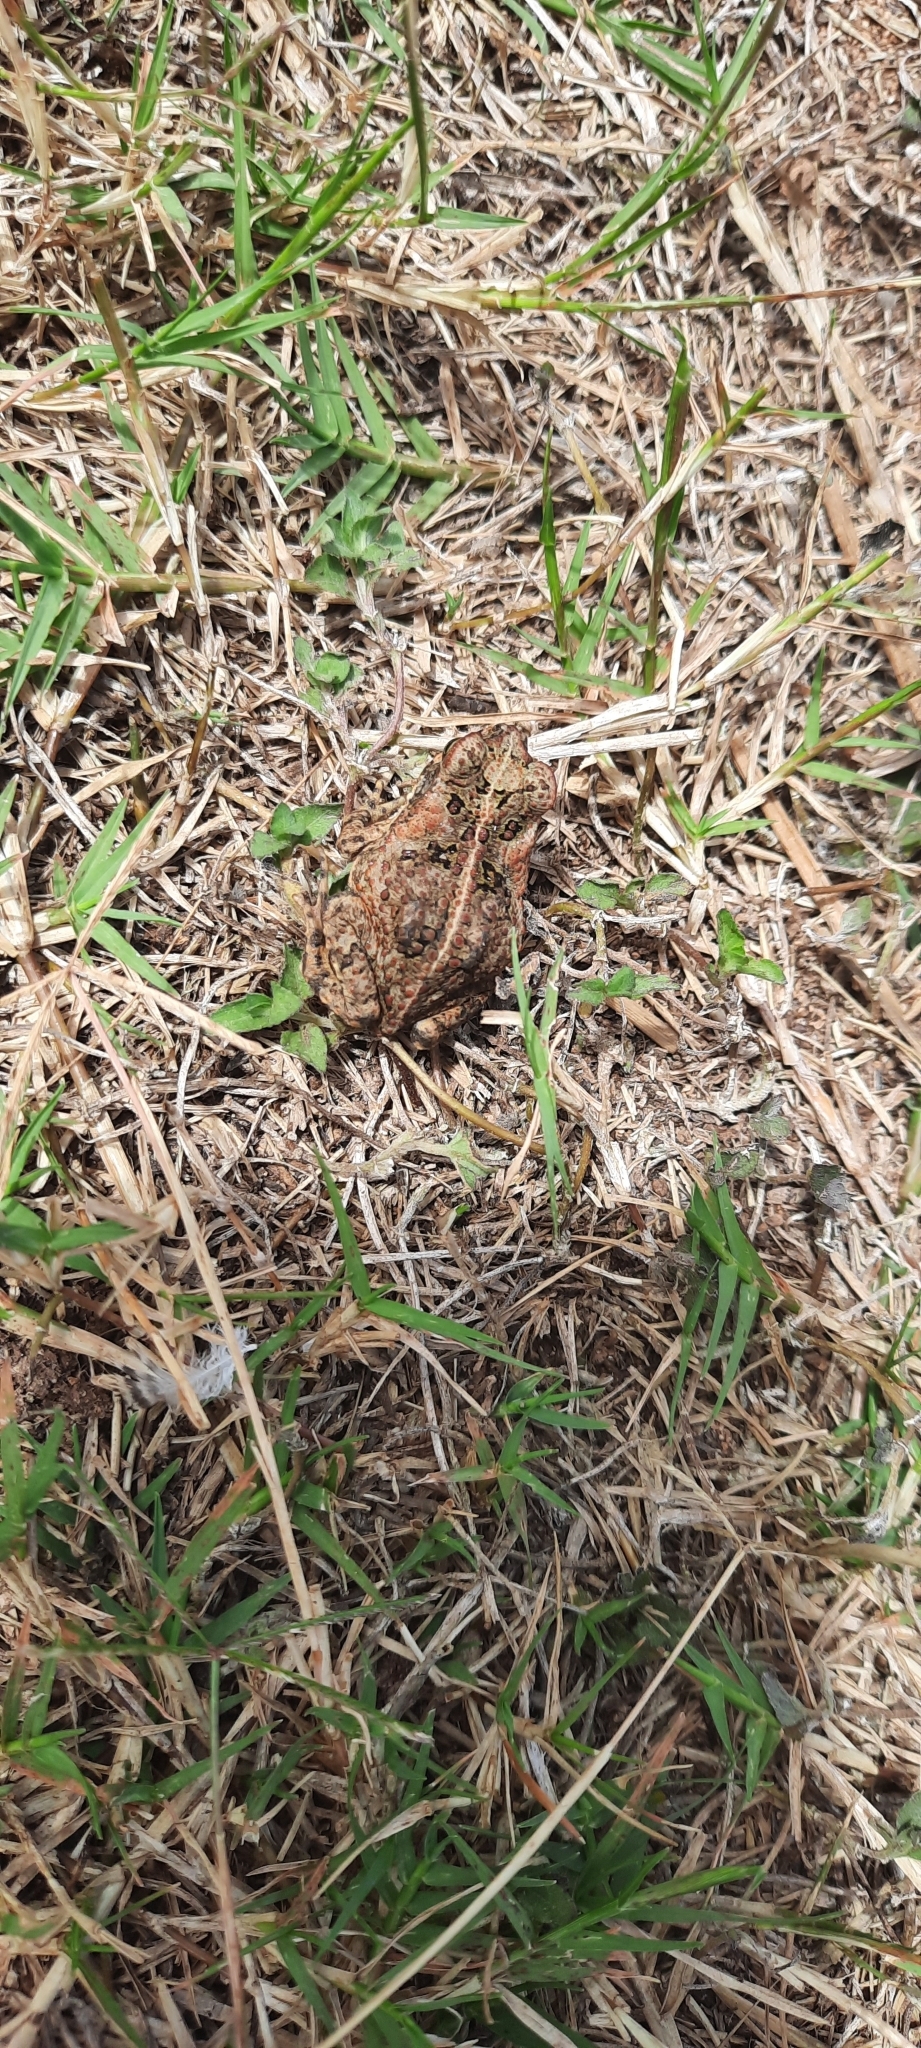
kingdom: Animalia
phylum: Chordata
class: Amphibia
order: Anura
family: Bufonidae
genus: Rhinella
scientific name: Rhinella marina
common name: Cane toad
